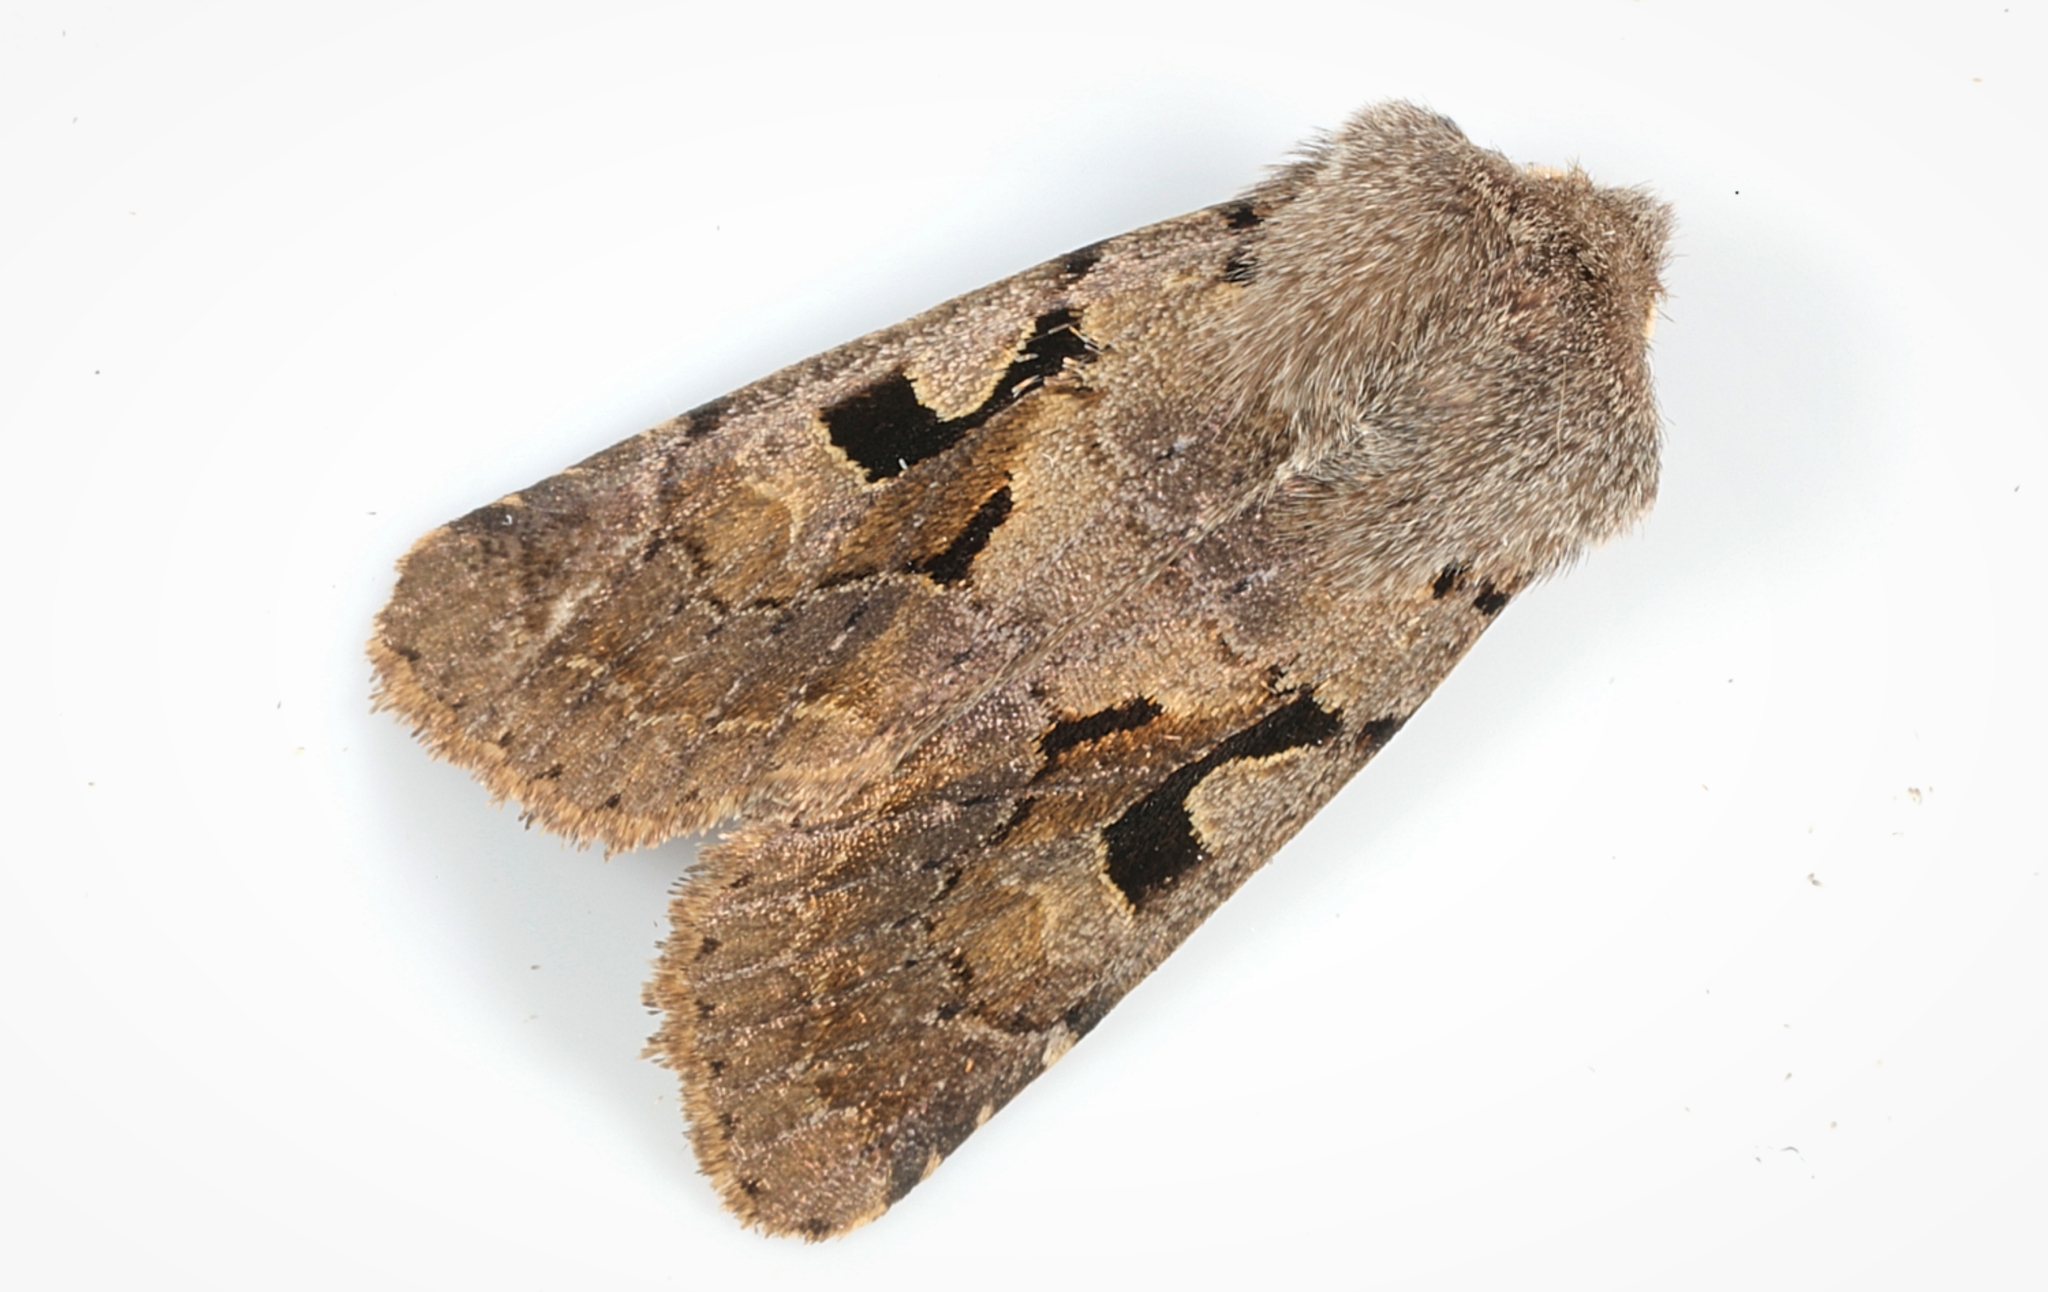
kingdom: Animalia
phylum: Arthropoda
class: Insecta
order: Lepidoptera
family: Noctuidae
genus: Orthosia
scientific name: Orthosia gothica
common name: Hebrew character
